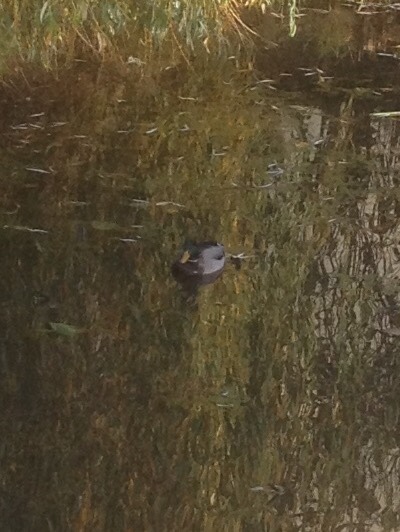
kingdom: Animalia
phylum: Chordata
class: Aves
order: Anseriformes
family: Anatidae
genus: Anas
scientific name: Anas platyrhynchos
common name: Mallard
